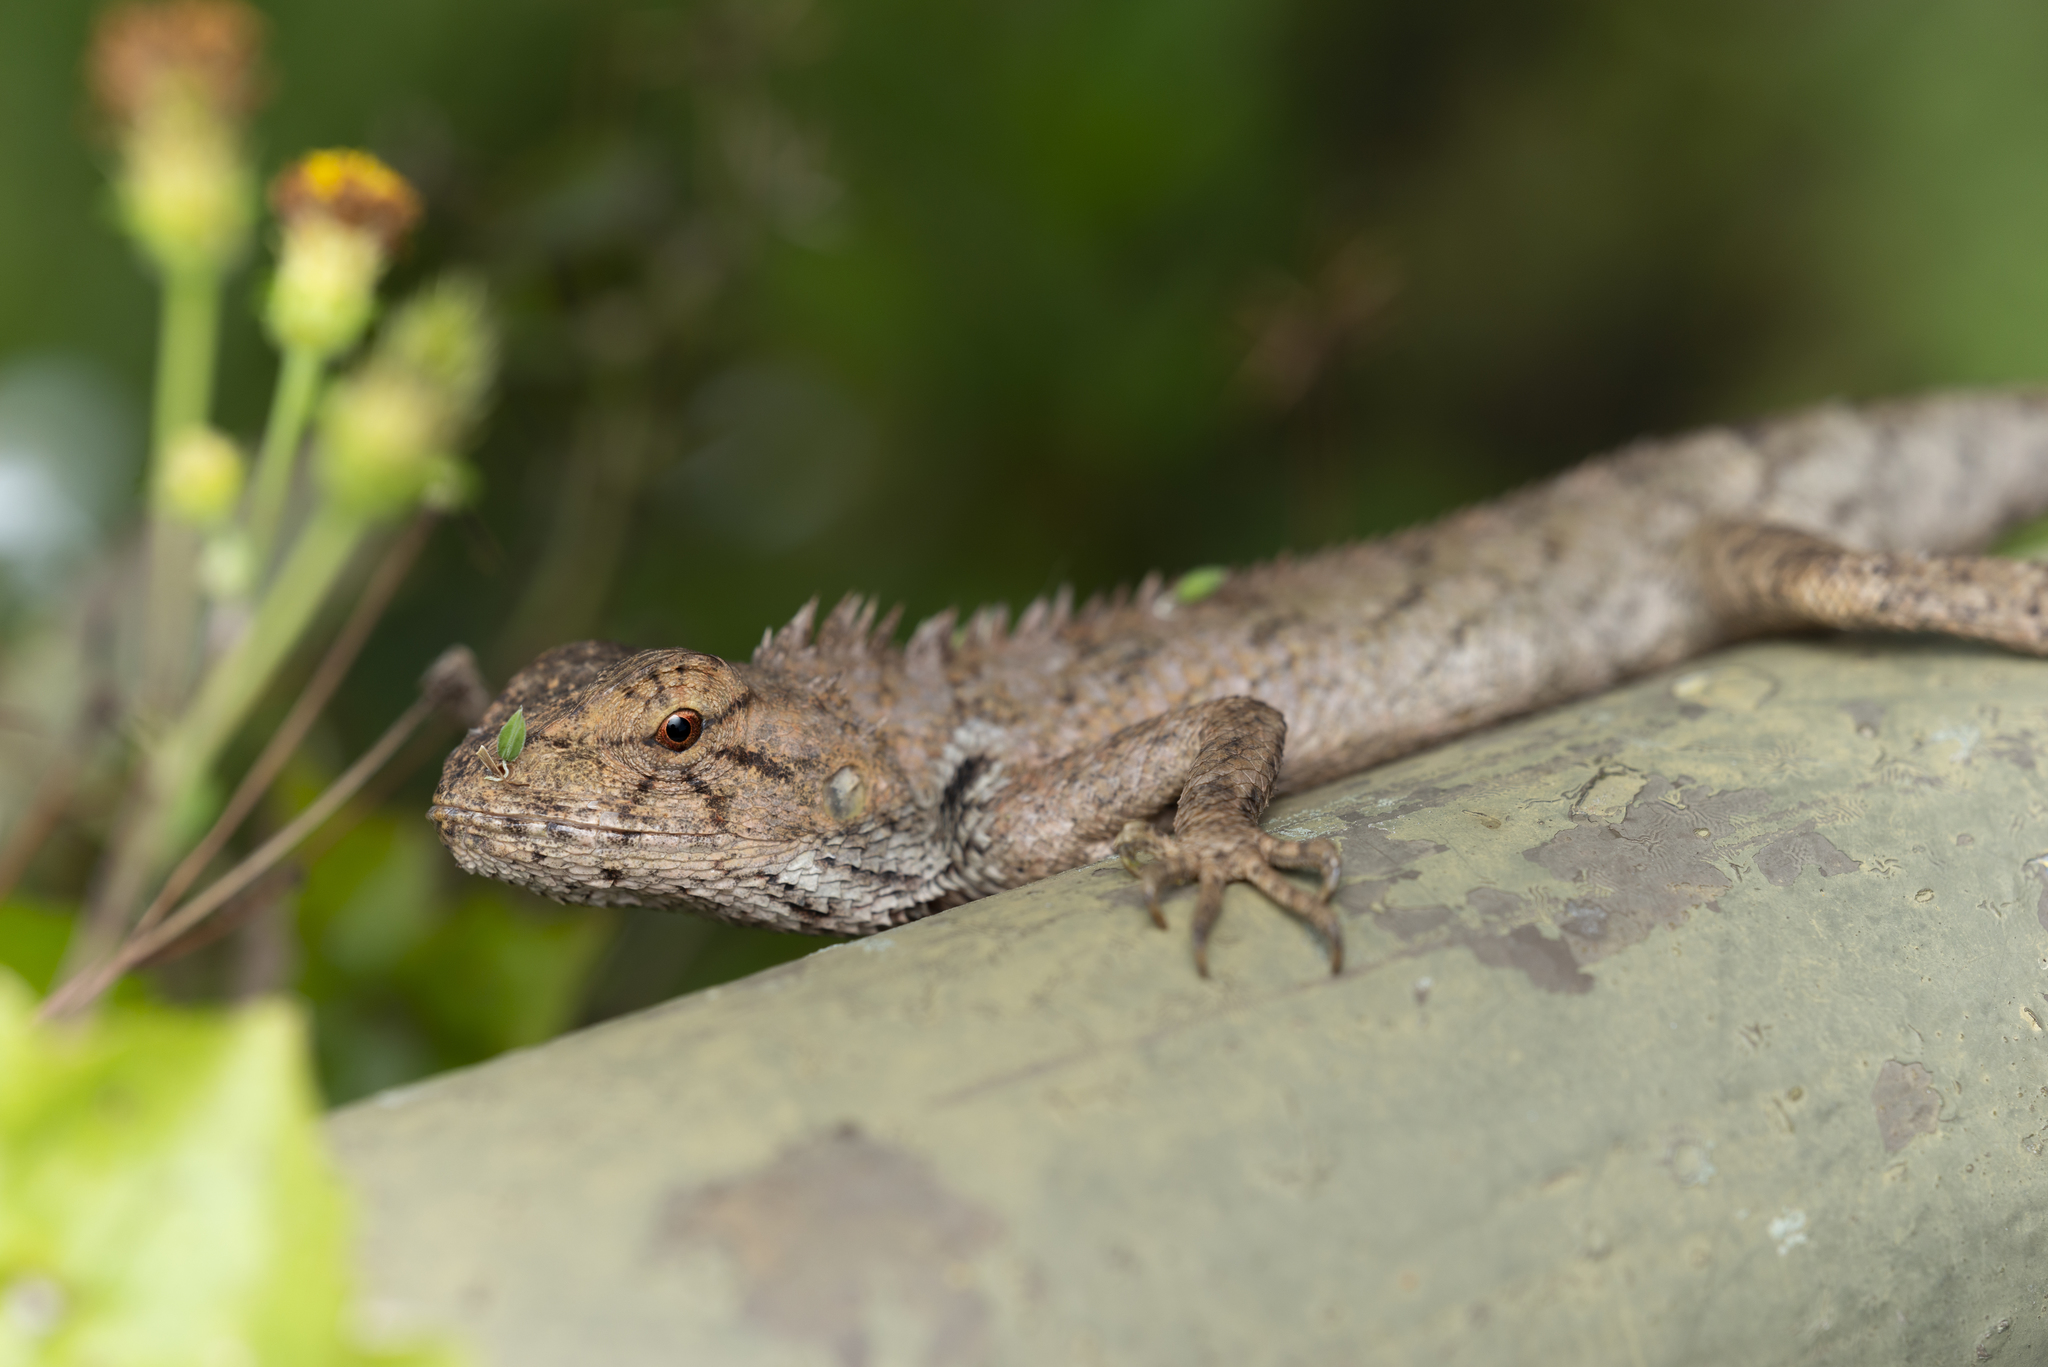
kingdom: Animalia
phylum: Chordata
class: Squamata
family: Agamidae
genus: Calotes
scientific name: Calotes versicolor
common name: Oriental garden lizard
